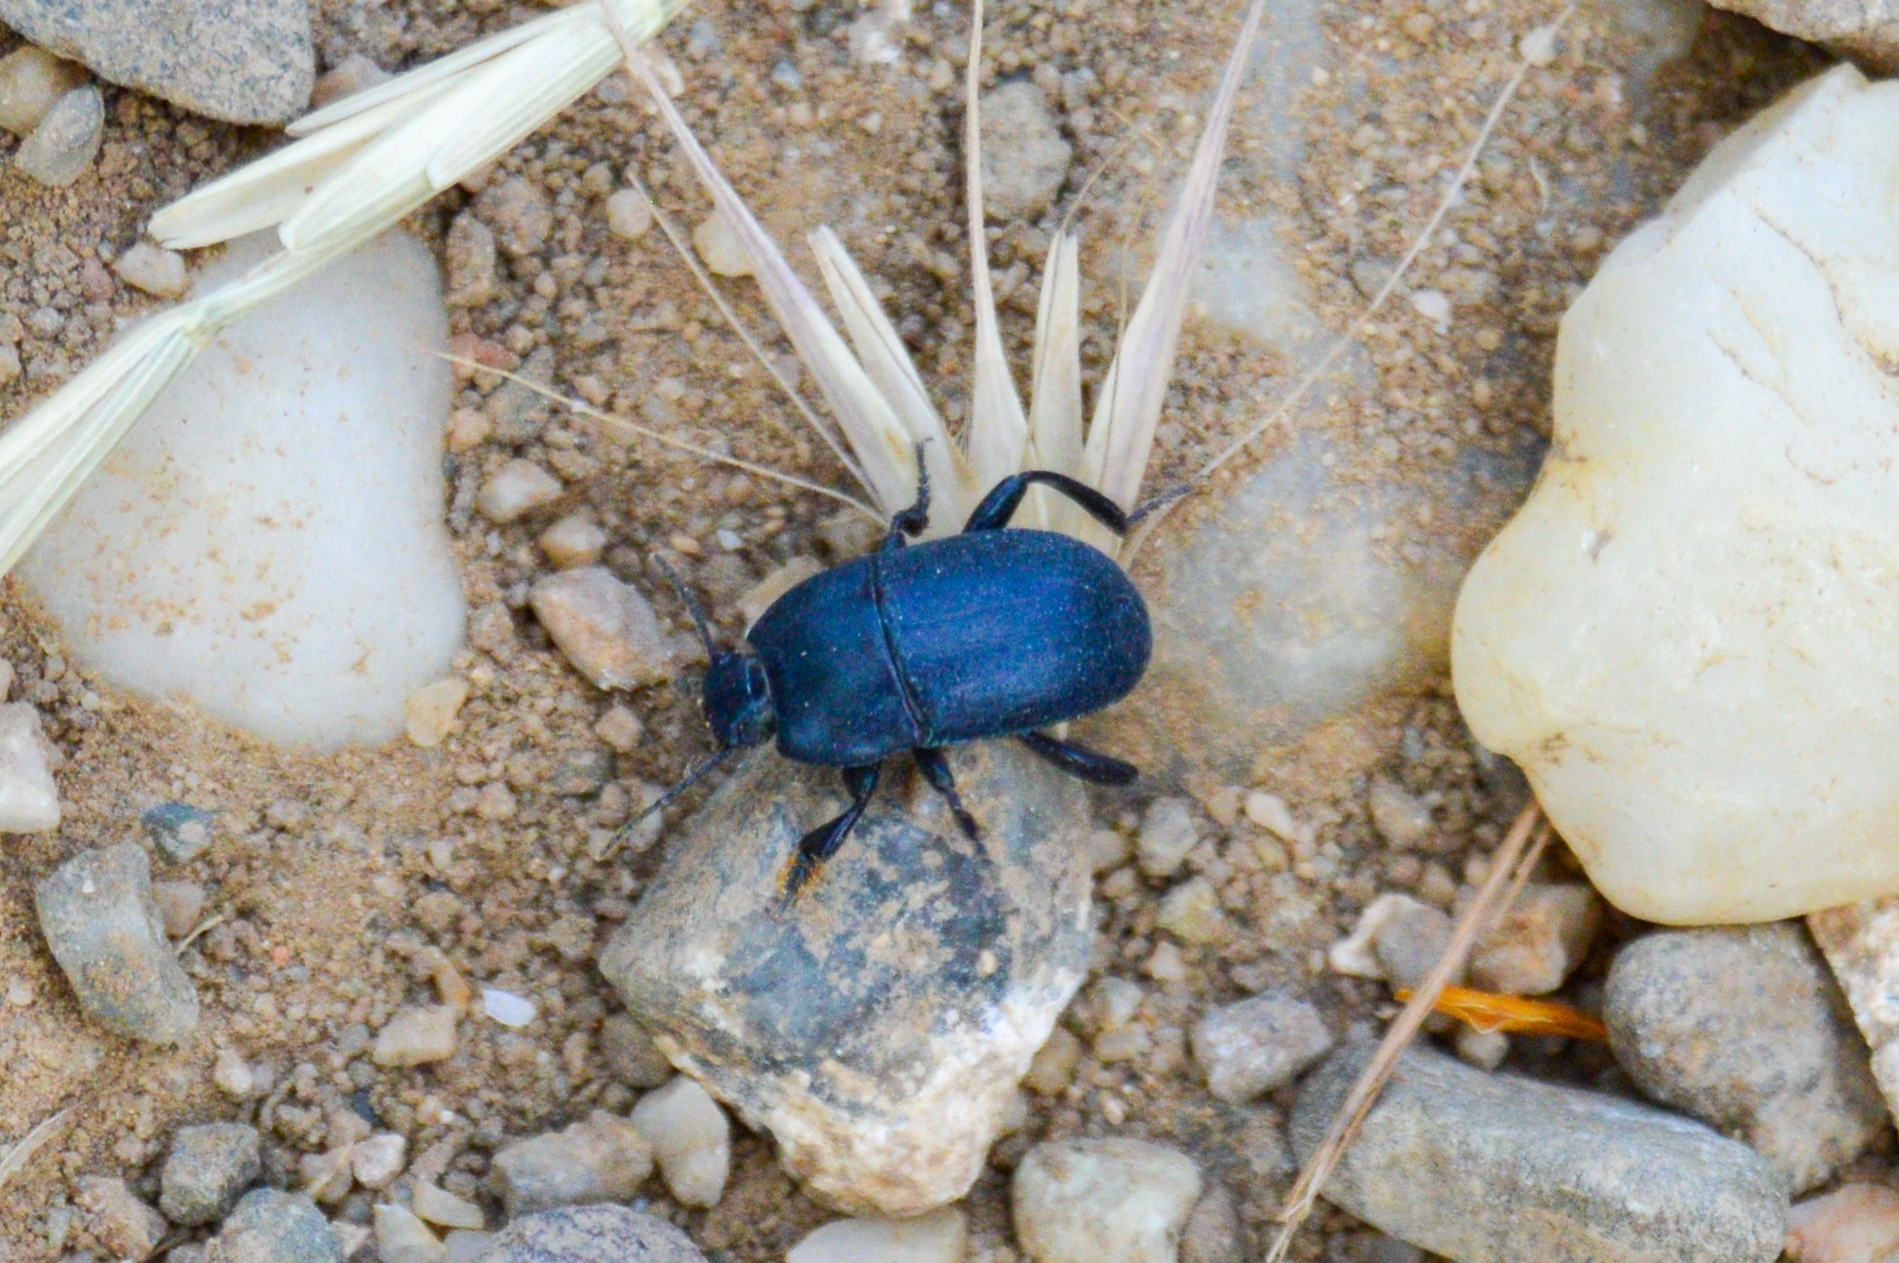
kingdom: Animalia
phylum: Arthropoda
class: Insecta
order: Coleoptera
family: Tenebrionidae
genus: Pedinus
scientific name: Pedinus femoralis
